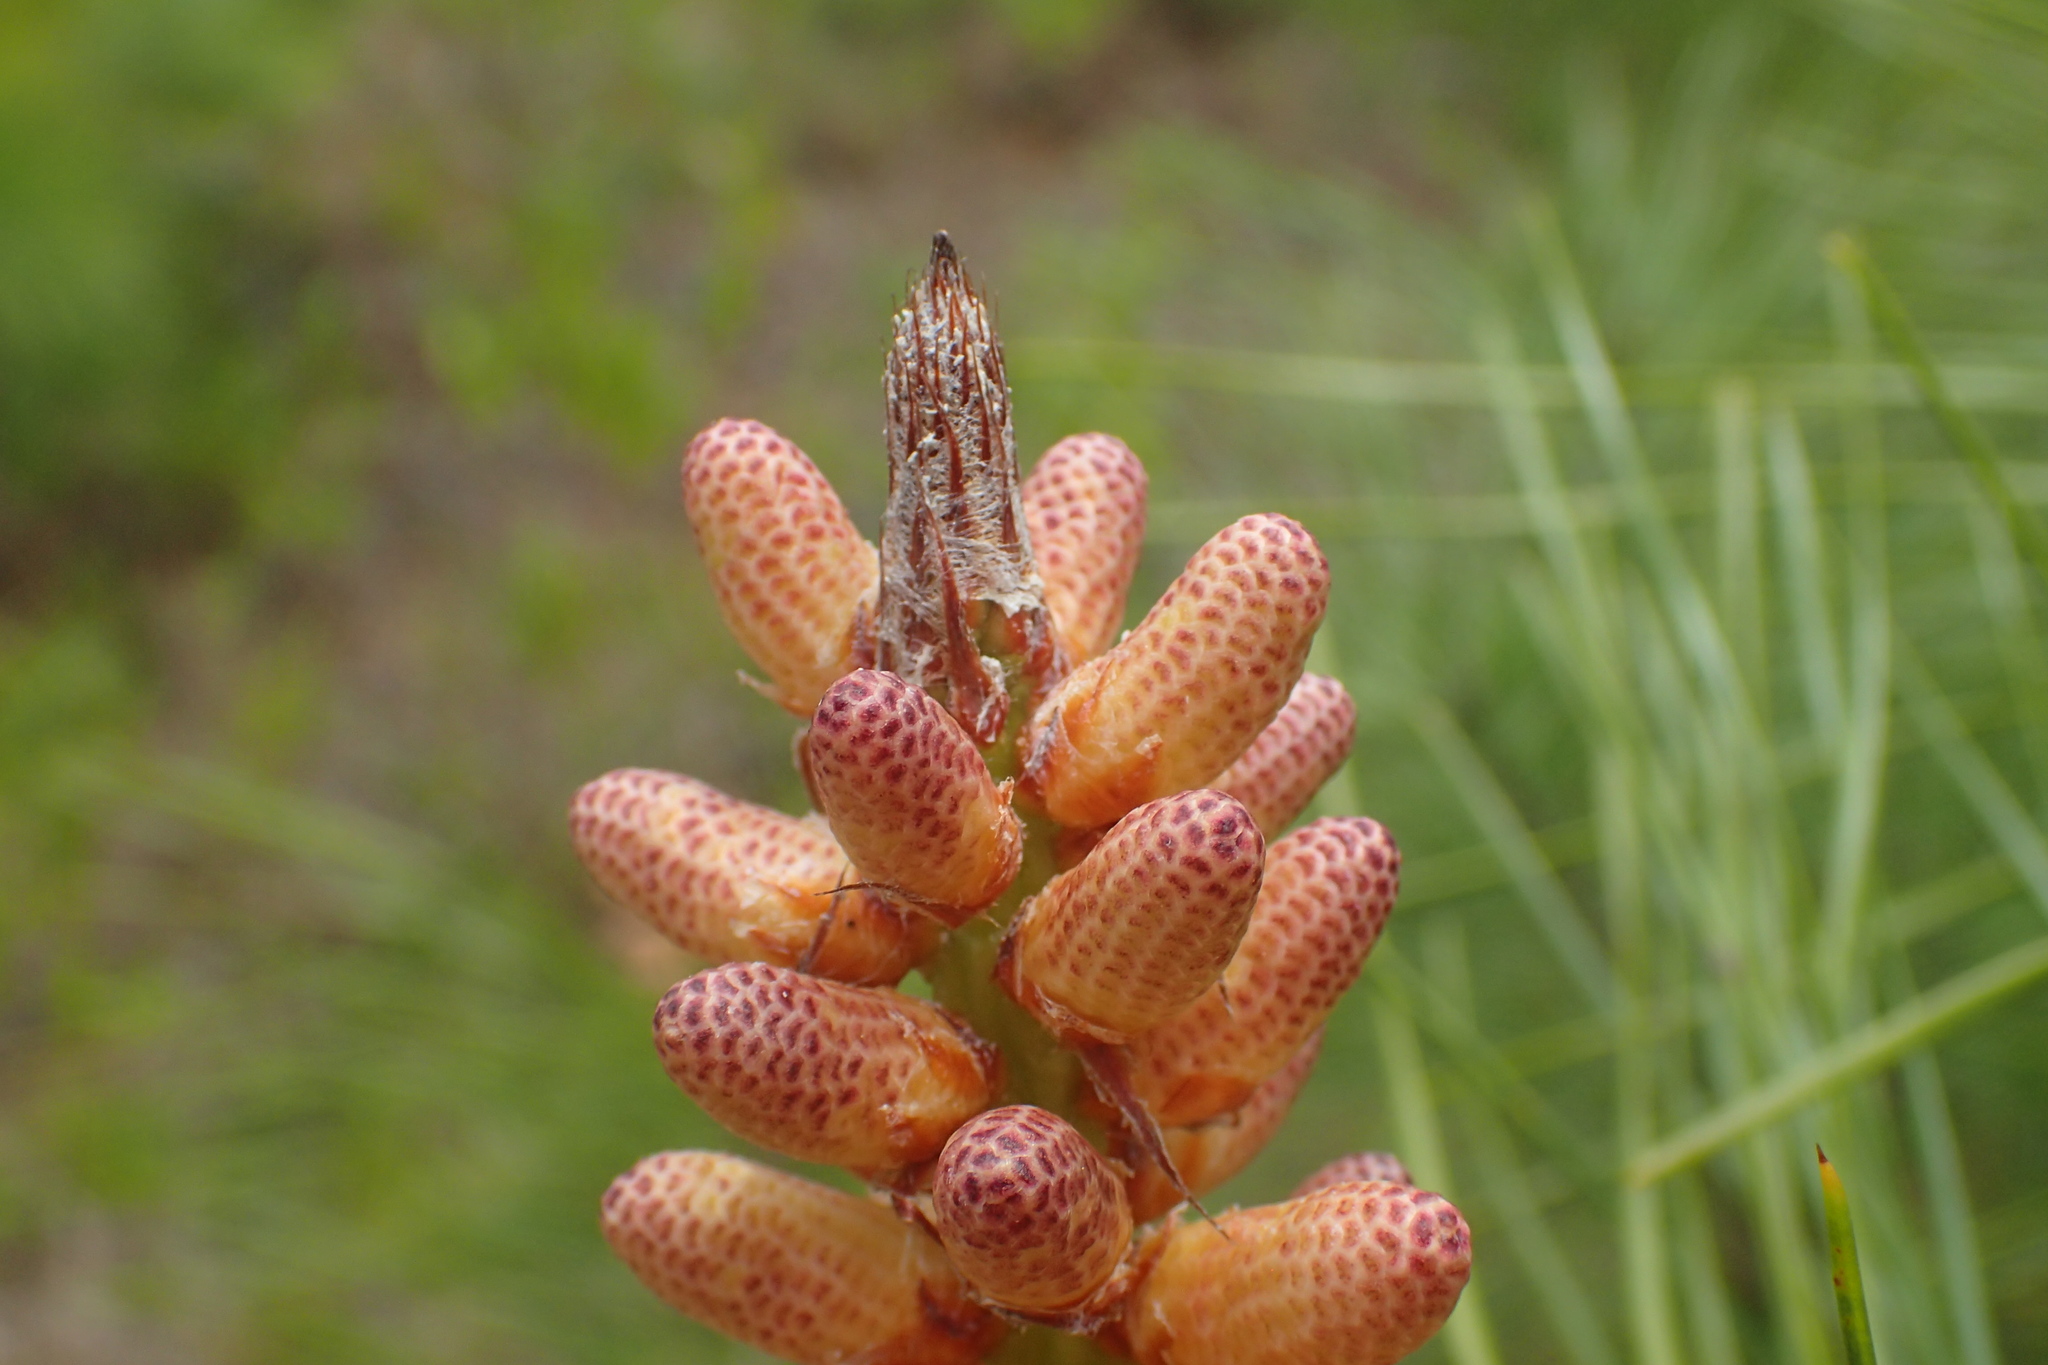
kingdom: Plantae
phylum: Tracheophyta
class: Pinopsida
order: Pinales
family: Pinaceae
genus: Pinus
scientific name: Pinus serotina
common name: Marsh pine
